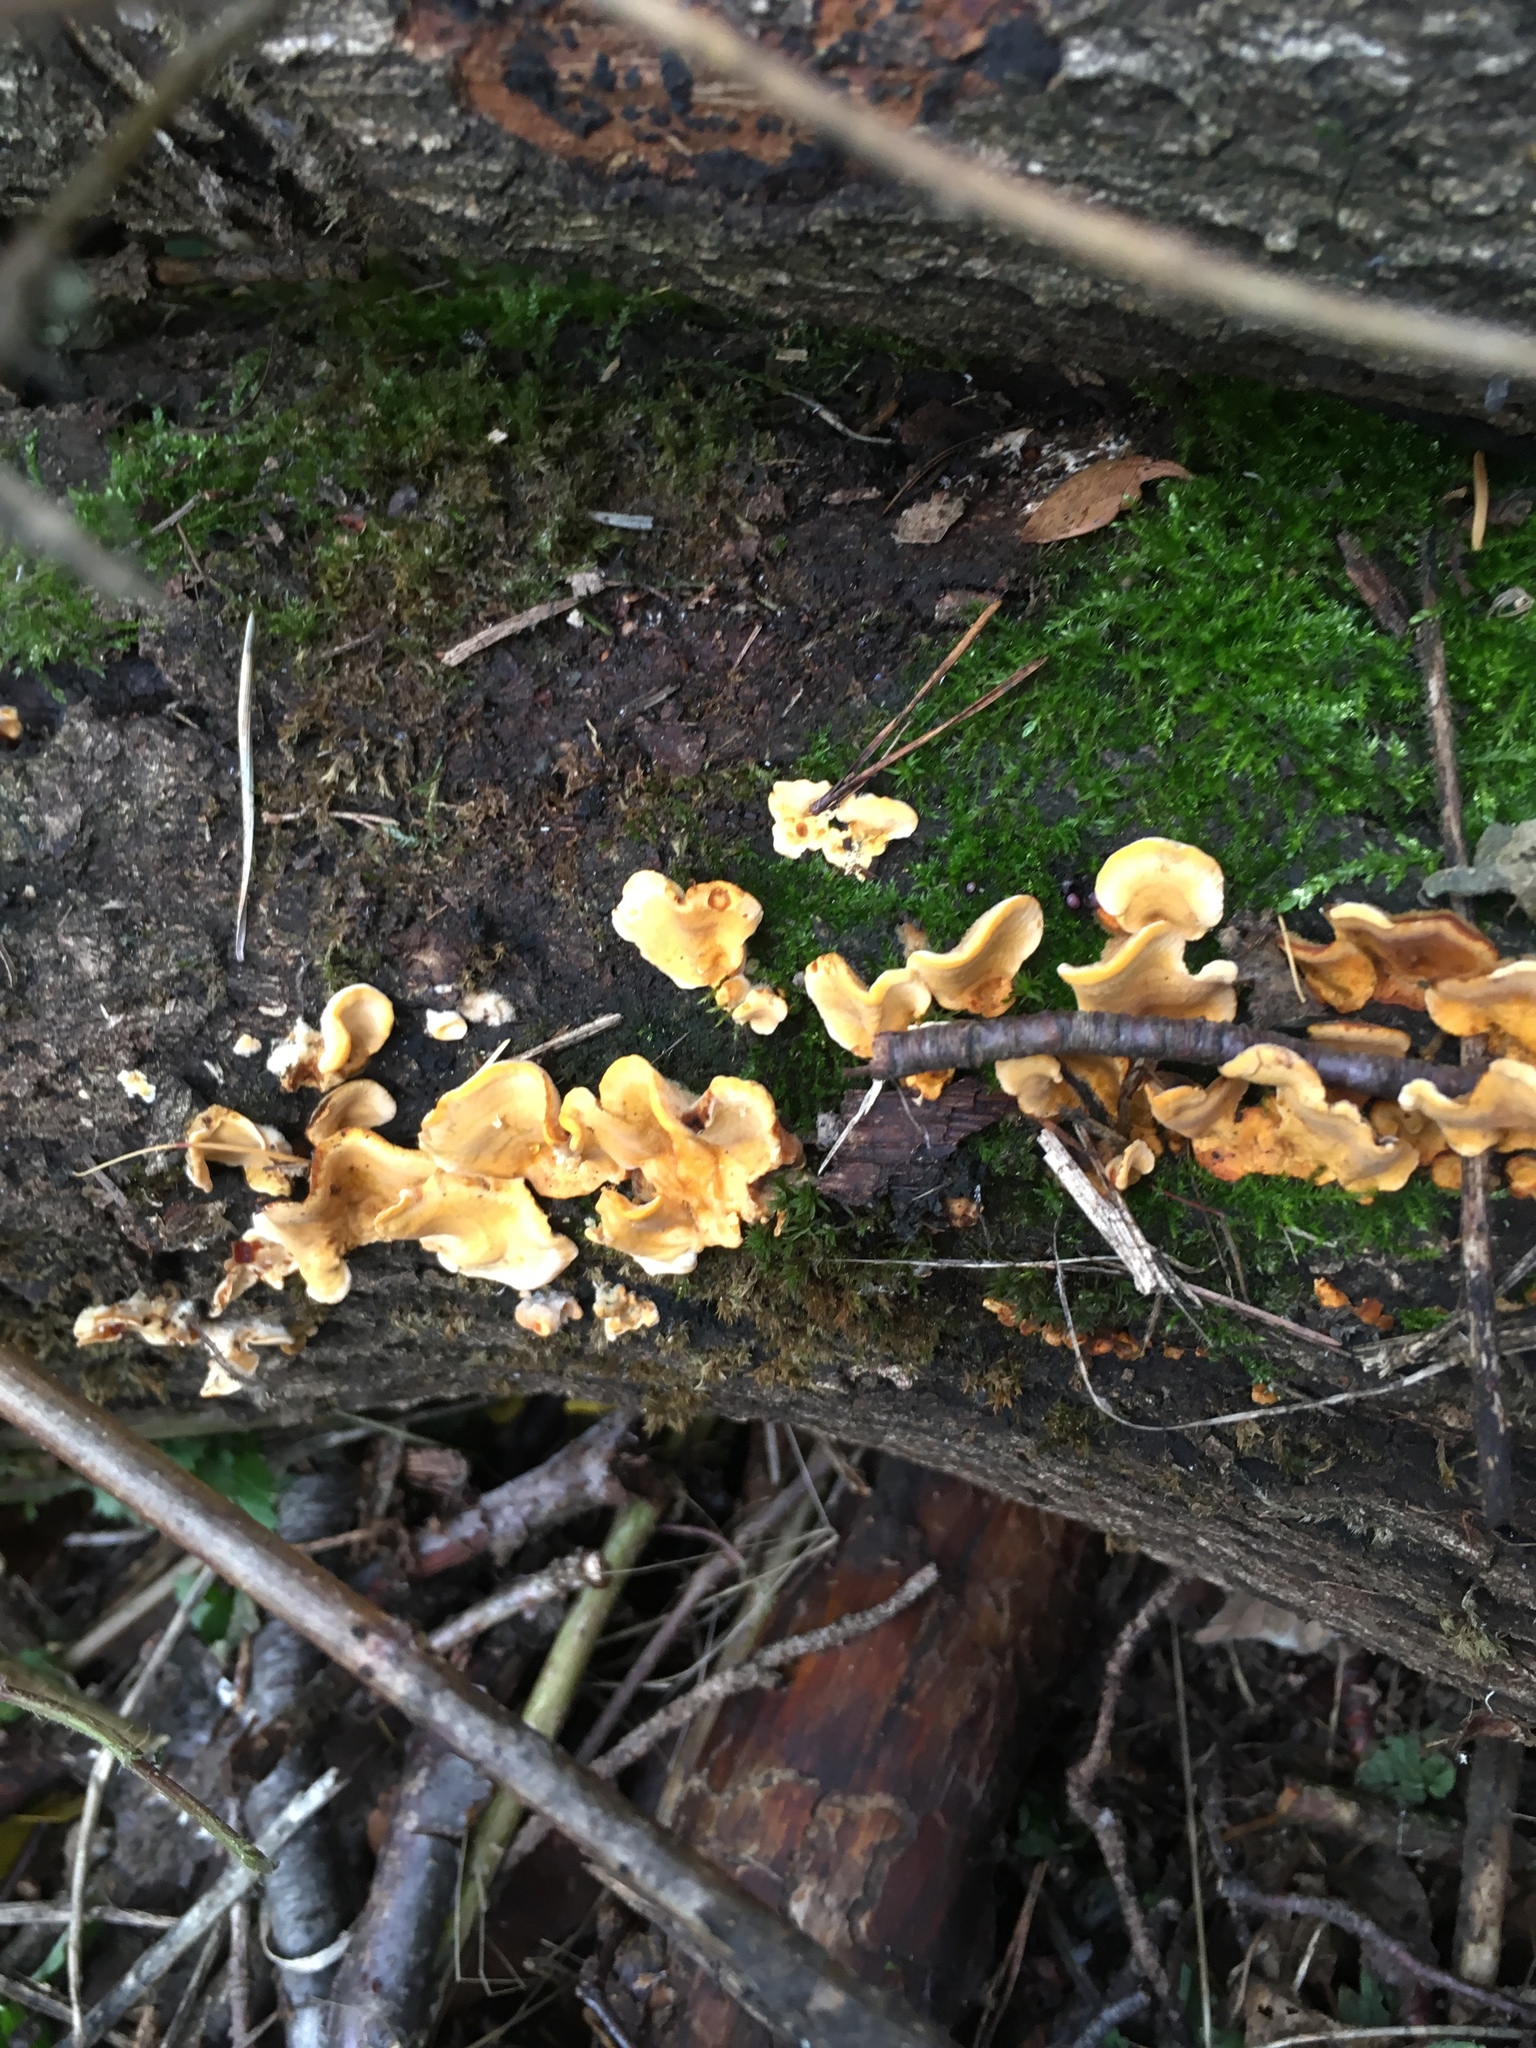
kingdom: Fungi
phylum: Basidiomycota
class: Agaricomycetes
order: Russulales
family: Stereaceae
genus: Stereum
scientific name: Stereum hirsutum
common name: Hairy curtain crust
